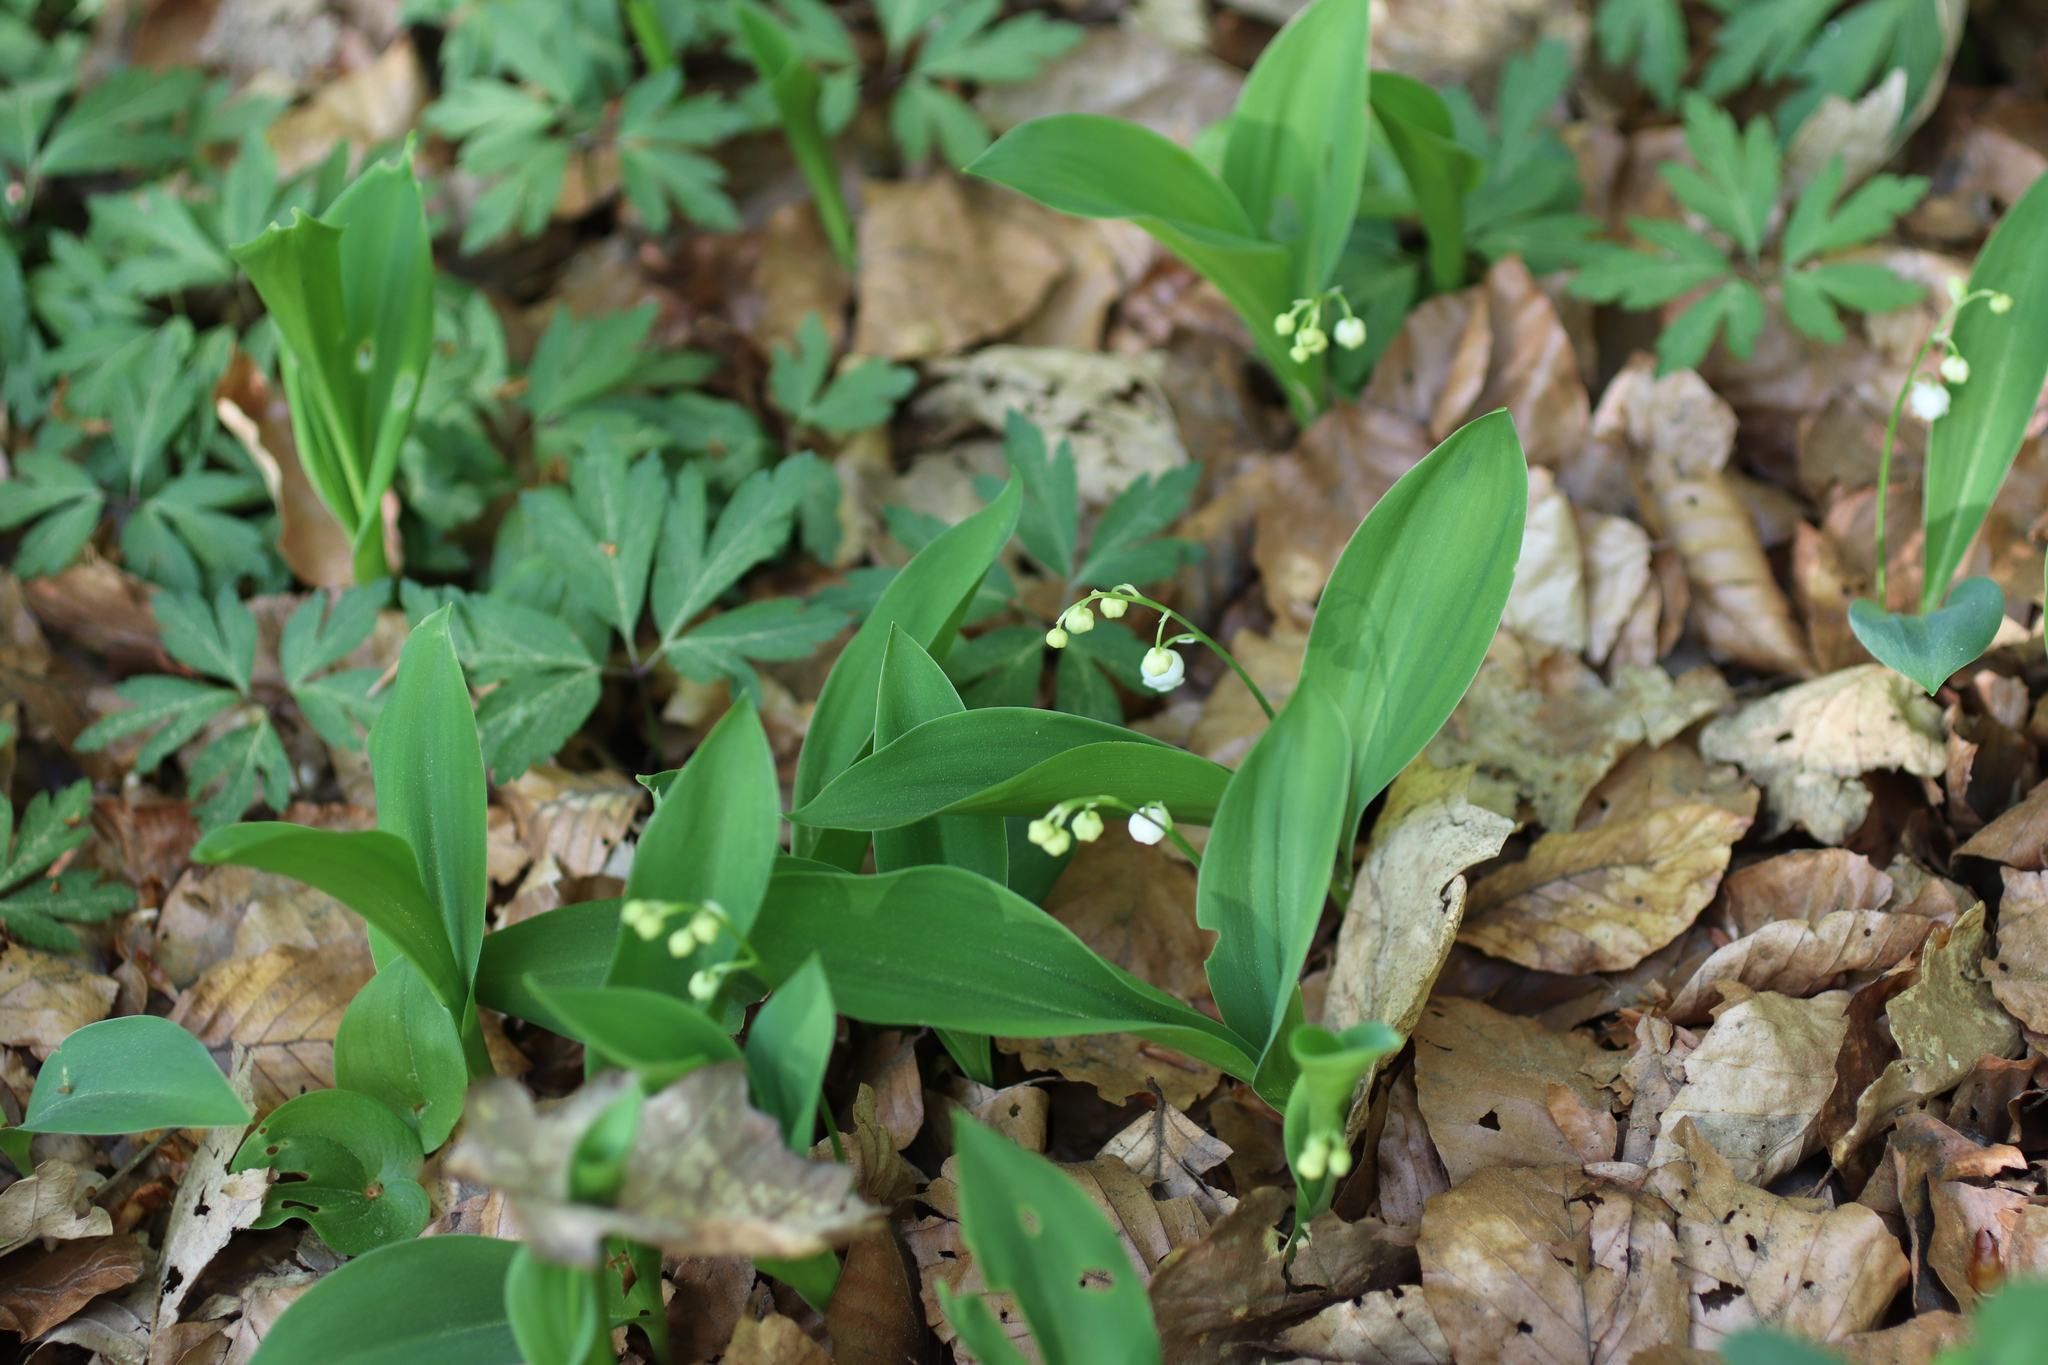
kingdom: Plantae
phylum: Tracheophyta
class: Liliopsida
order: Asparagales
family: Asparagaceae
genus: Convallaria
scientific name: Convallaria majalis
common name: Lily-of-the-valley
